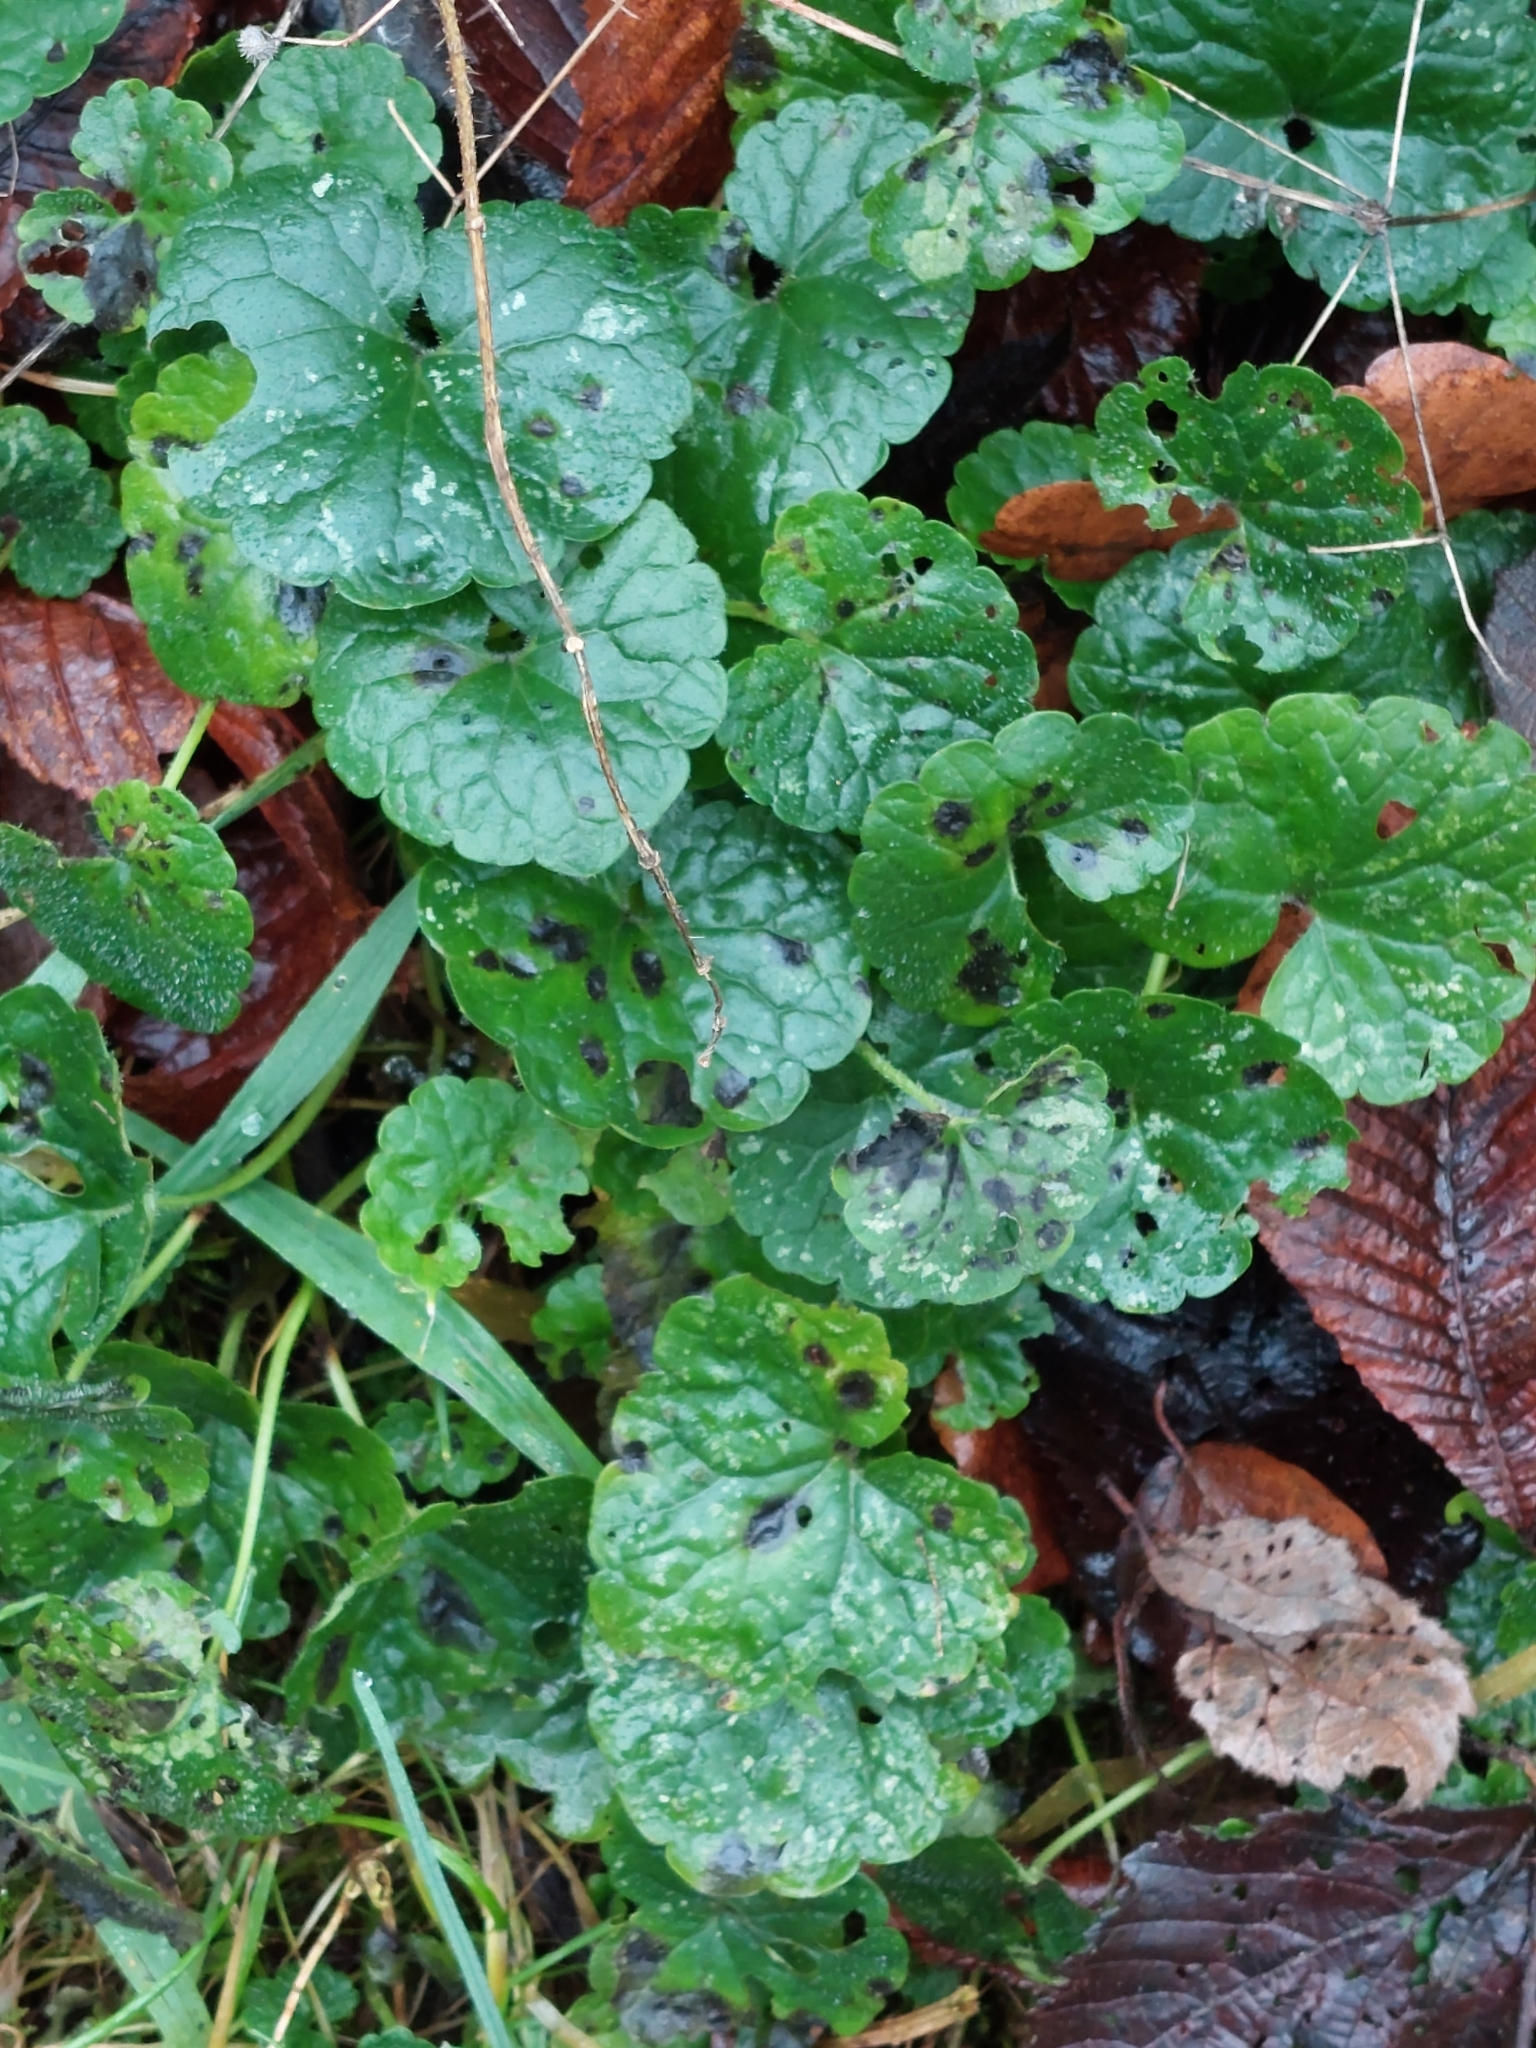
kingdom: Plantae
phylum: Tracheophyta
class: Magnoliopsida
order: Lamiales
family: Lamiaceae
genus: Glechoma
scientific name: Glechoma hederacea
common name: Ground ivy
